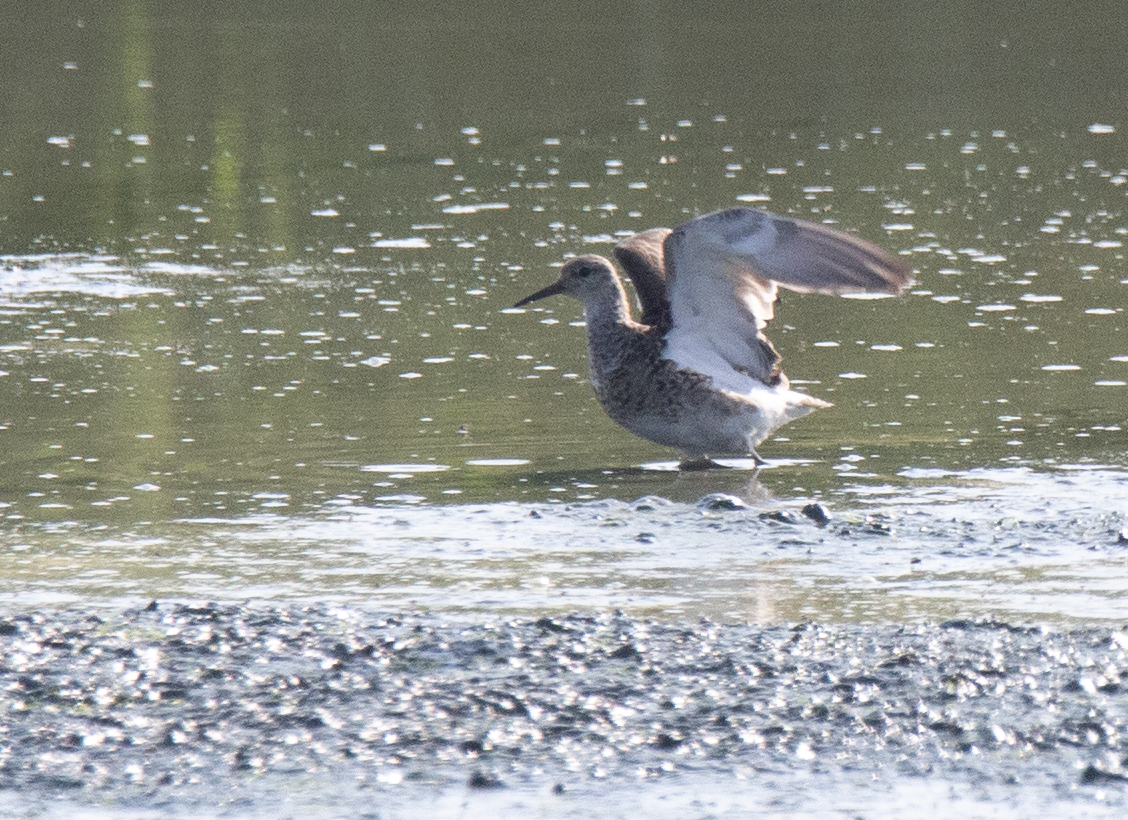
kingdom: Animalia
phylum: Chordata
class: Aves
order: Charadriiformes
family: Scolopacidae
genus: Calidris
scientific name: Calidris pugnax
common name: Ruff
